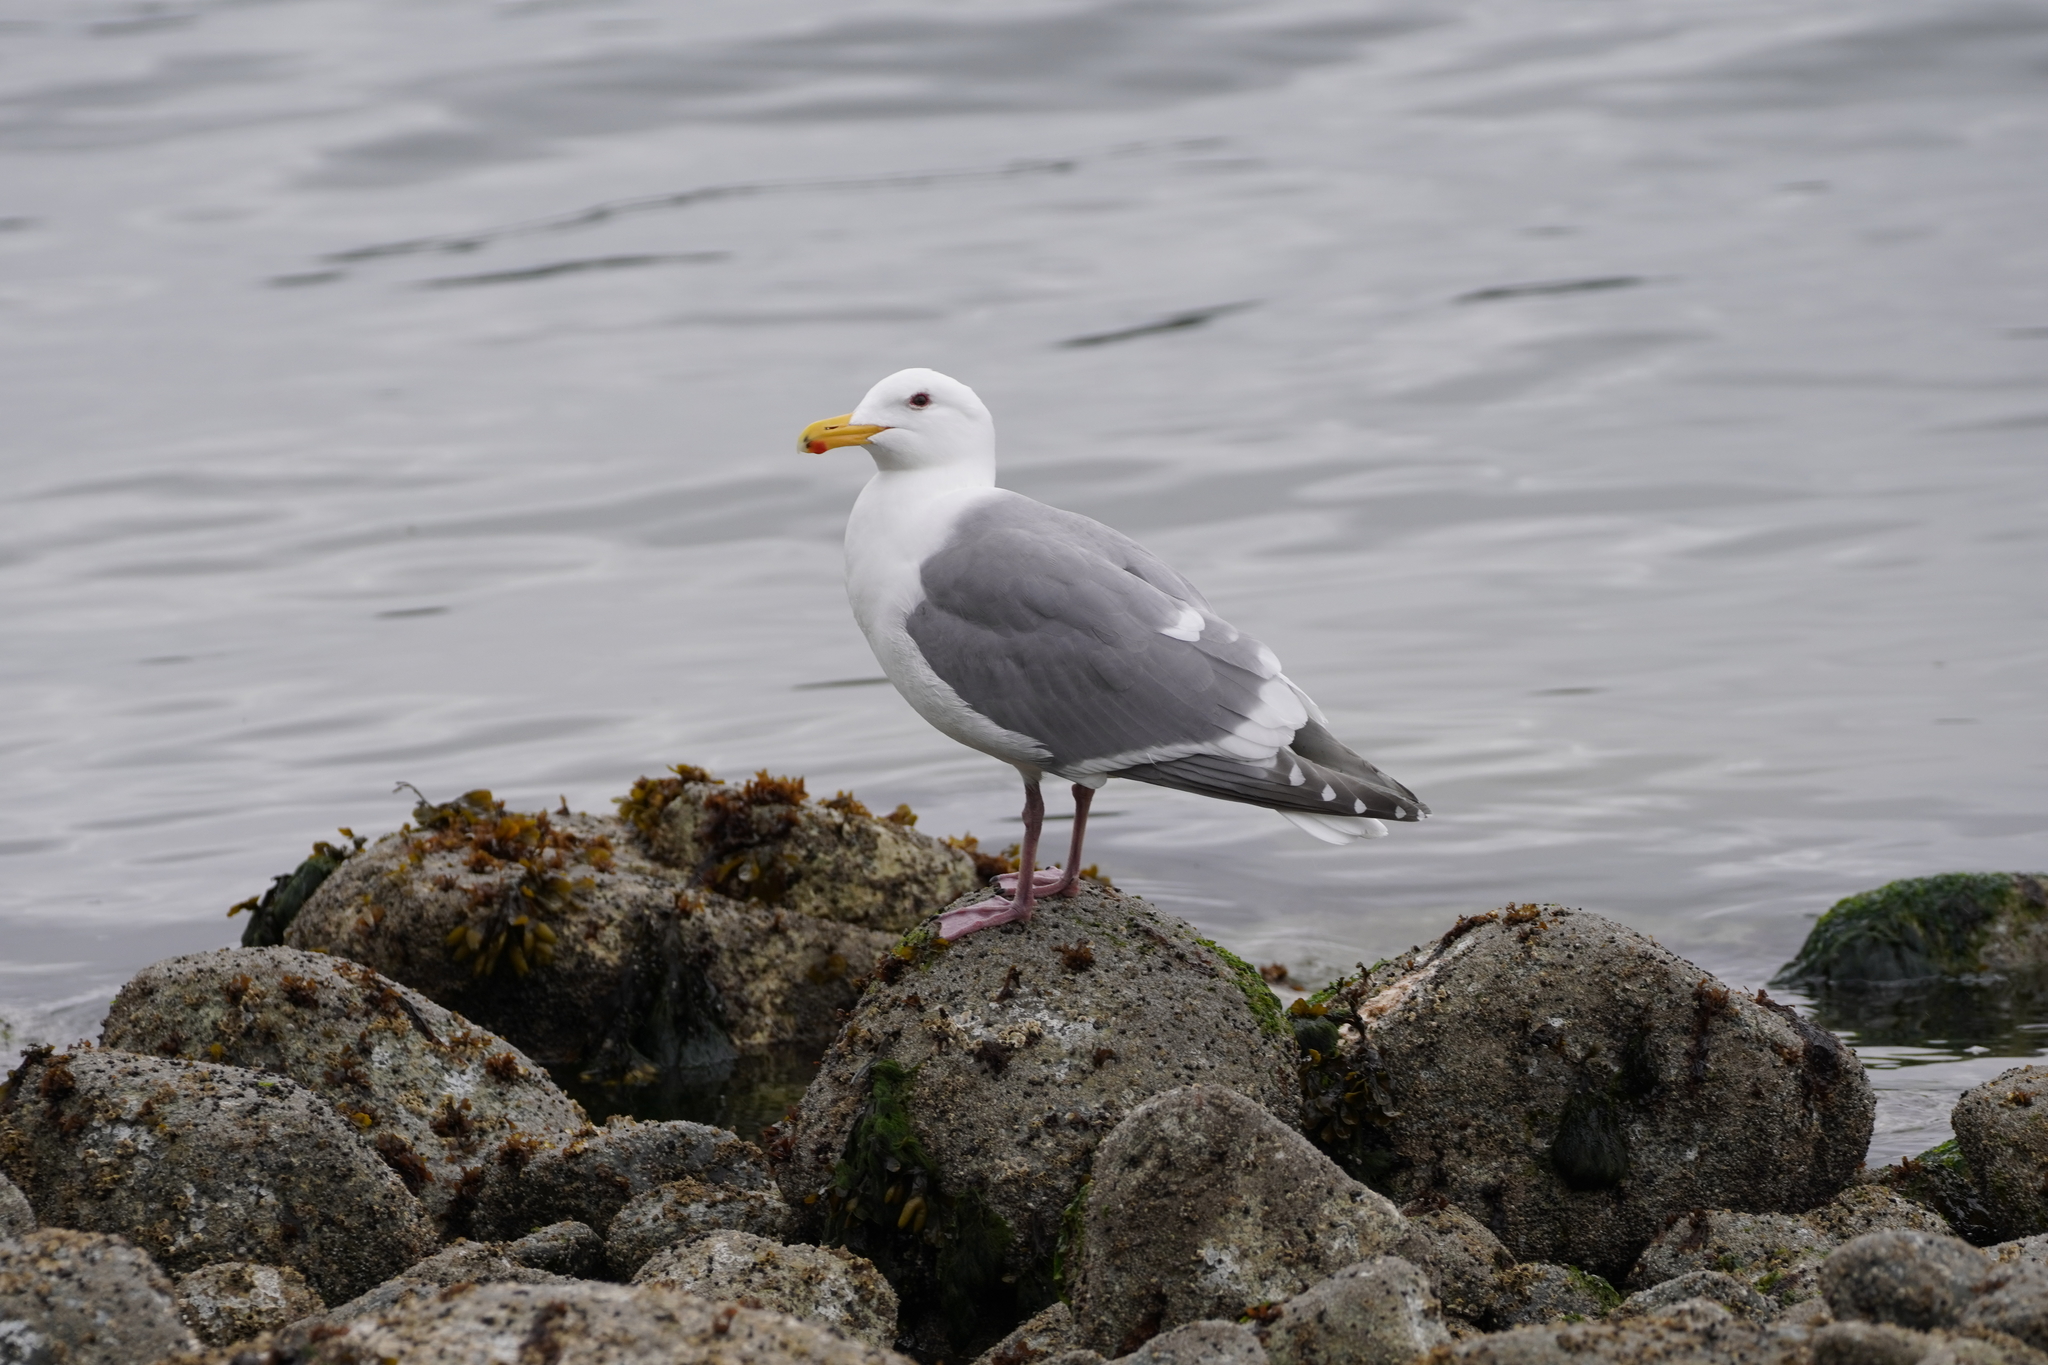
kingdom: Animalia
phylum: Chordata
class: Aves
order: Charadriiformes
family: Laridae
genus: Larus
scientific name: Larus
